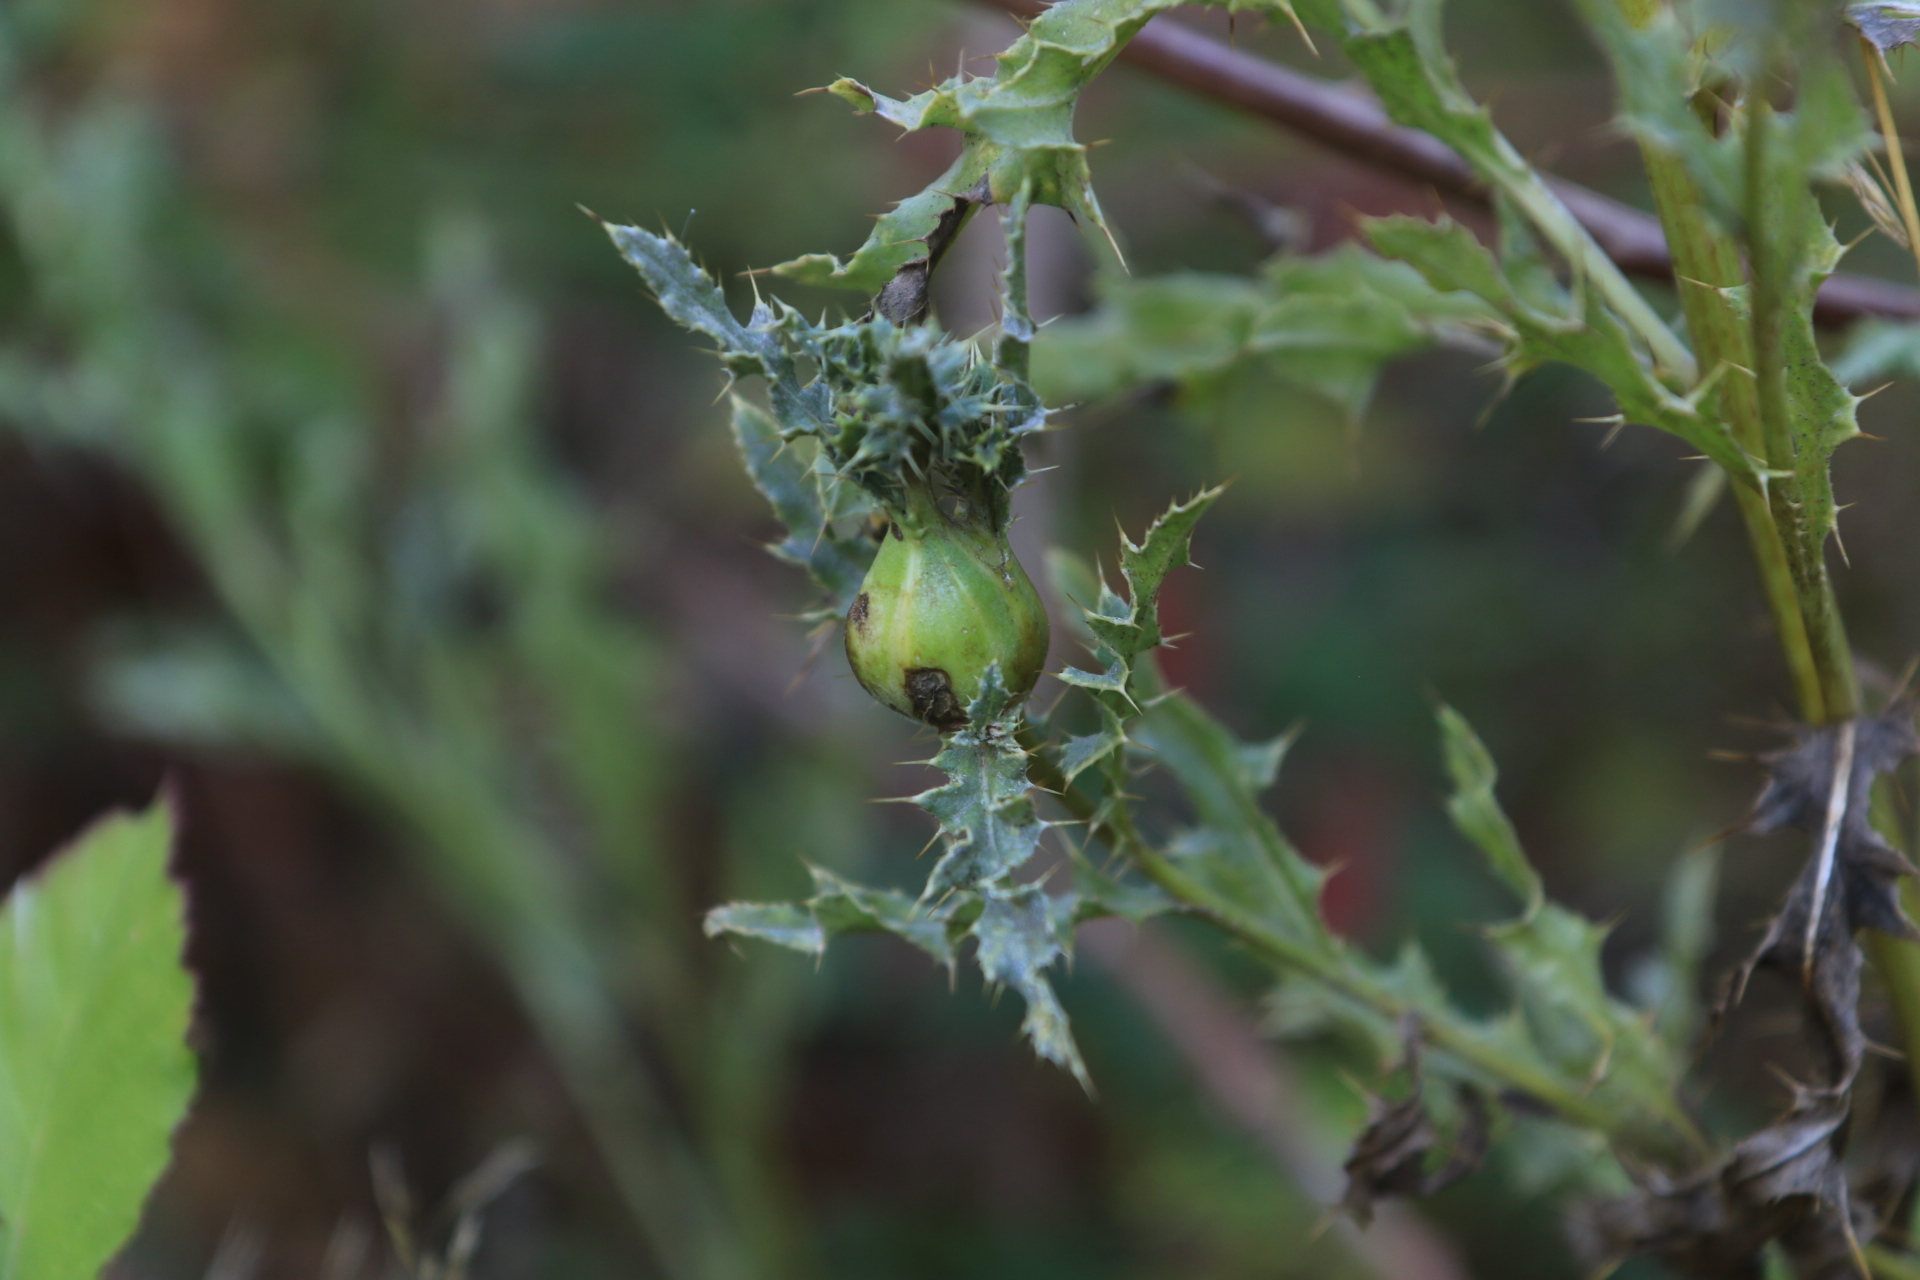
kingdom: Animalia
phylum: Arthropoda
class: Insecta
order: Diptera
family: Tephritidae
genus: Urophora
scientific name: Urophora cardui
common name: Fruit fly
